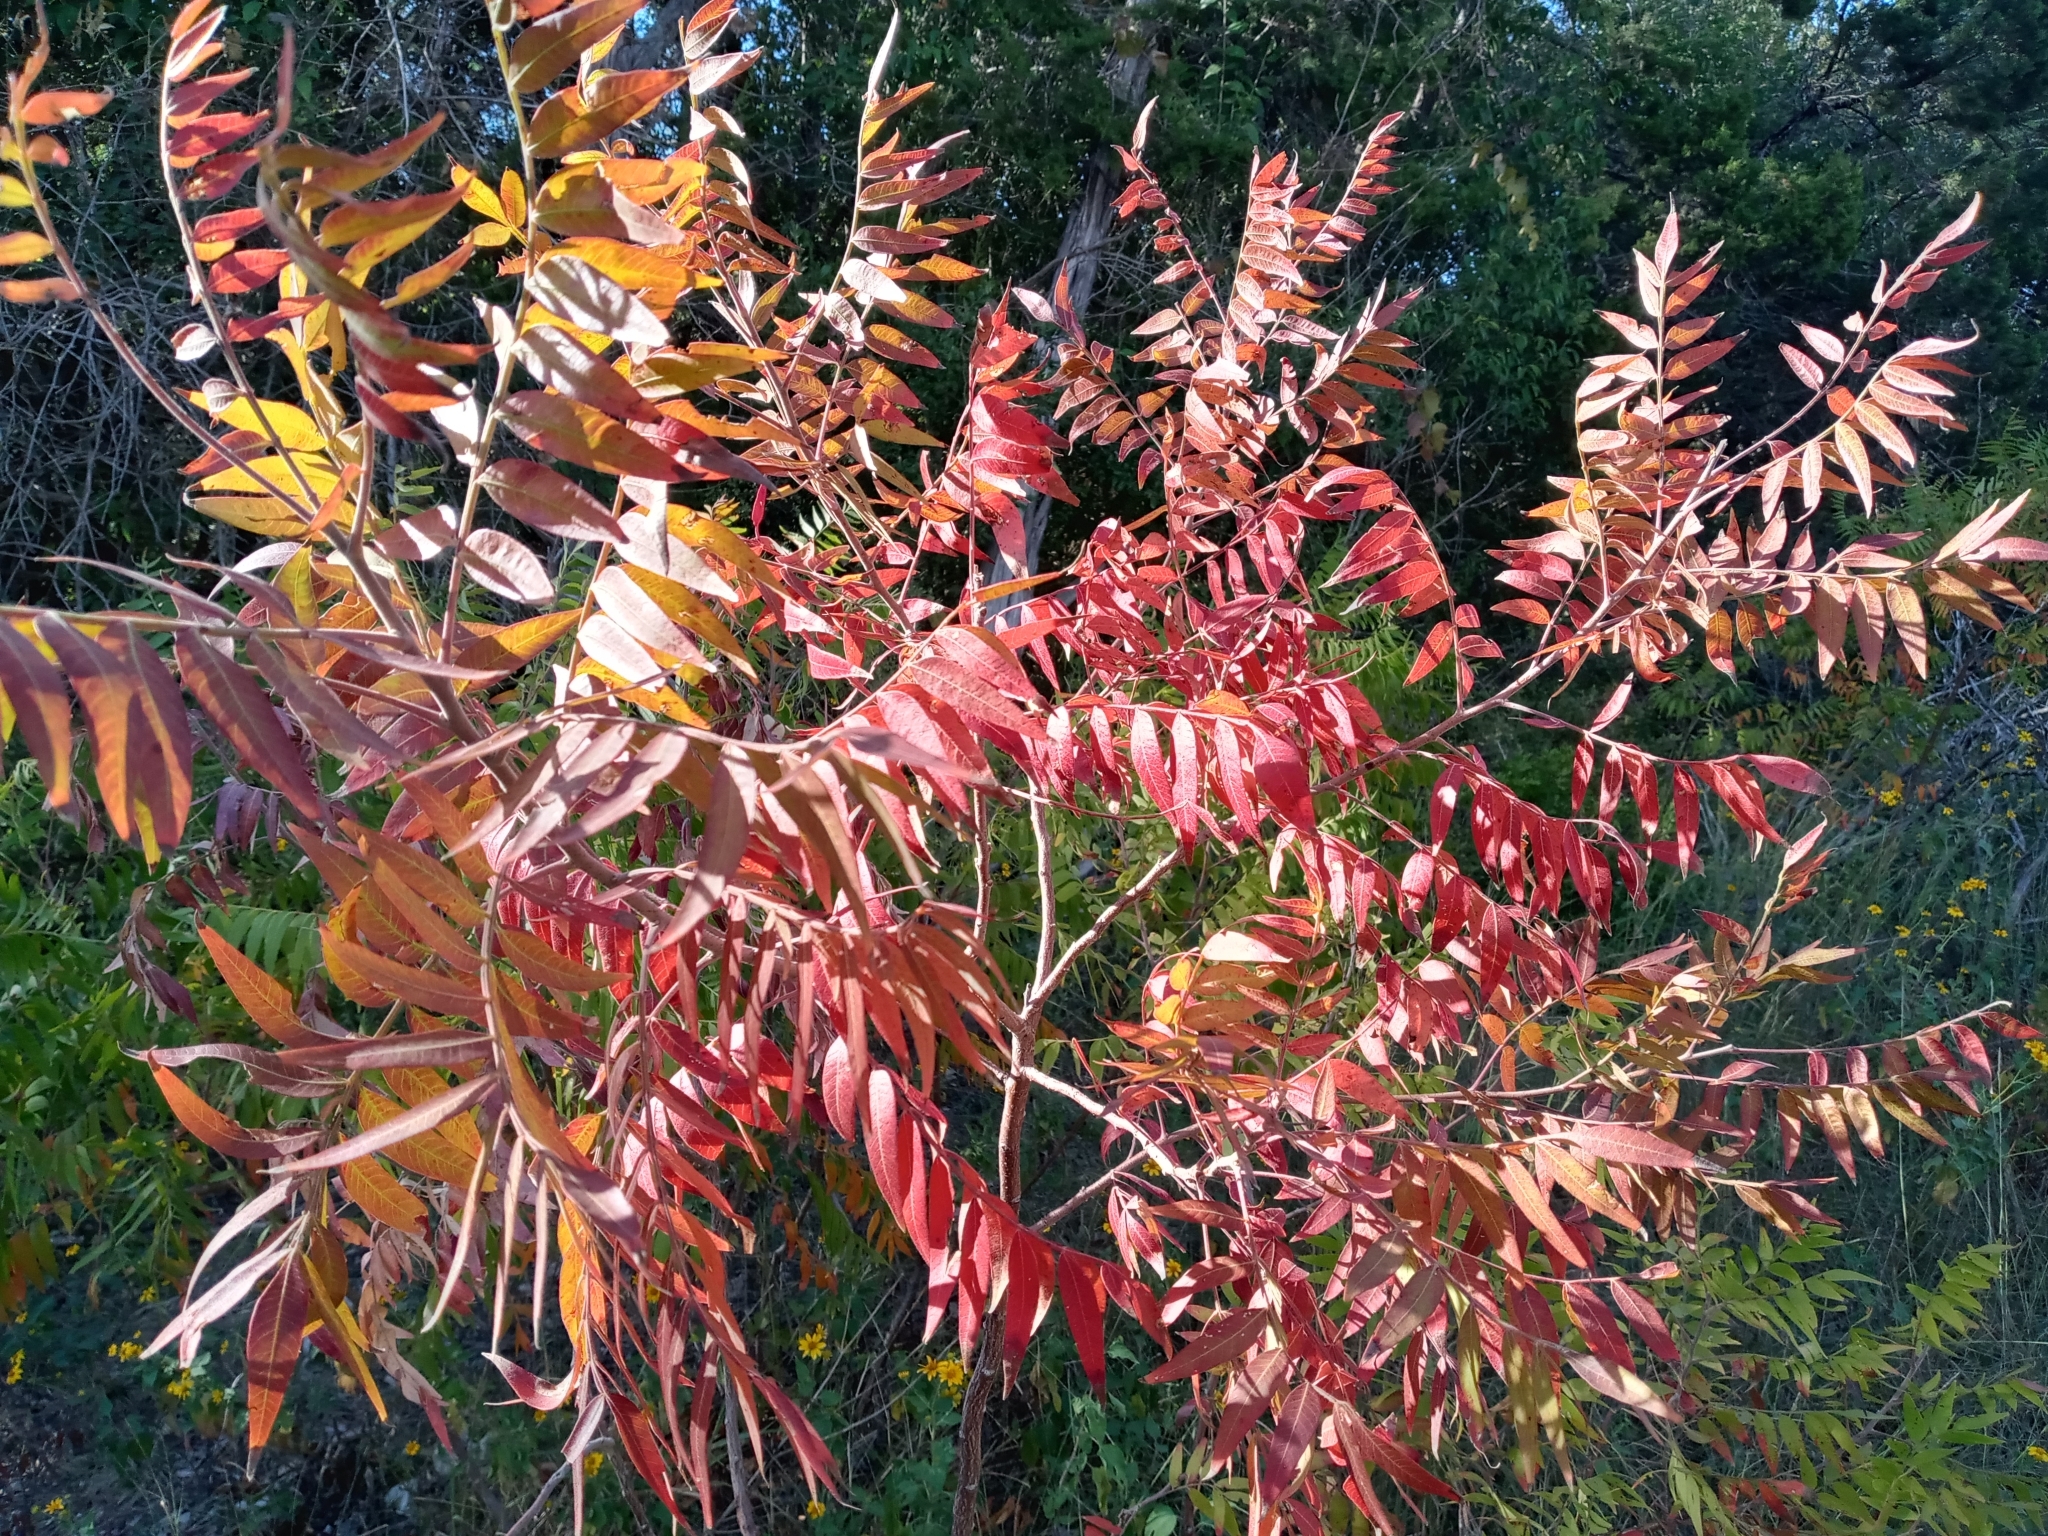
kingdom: Plantae
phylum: Tracheophyta
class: Magnoliopsida
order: Sapindales
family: Anacardiaceae
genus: Rhus
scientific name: Rhus lanceolata
